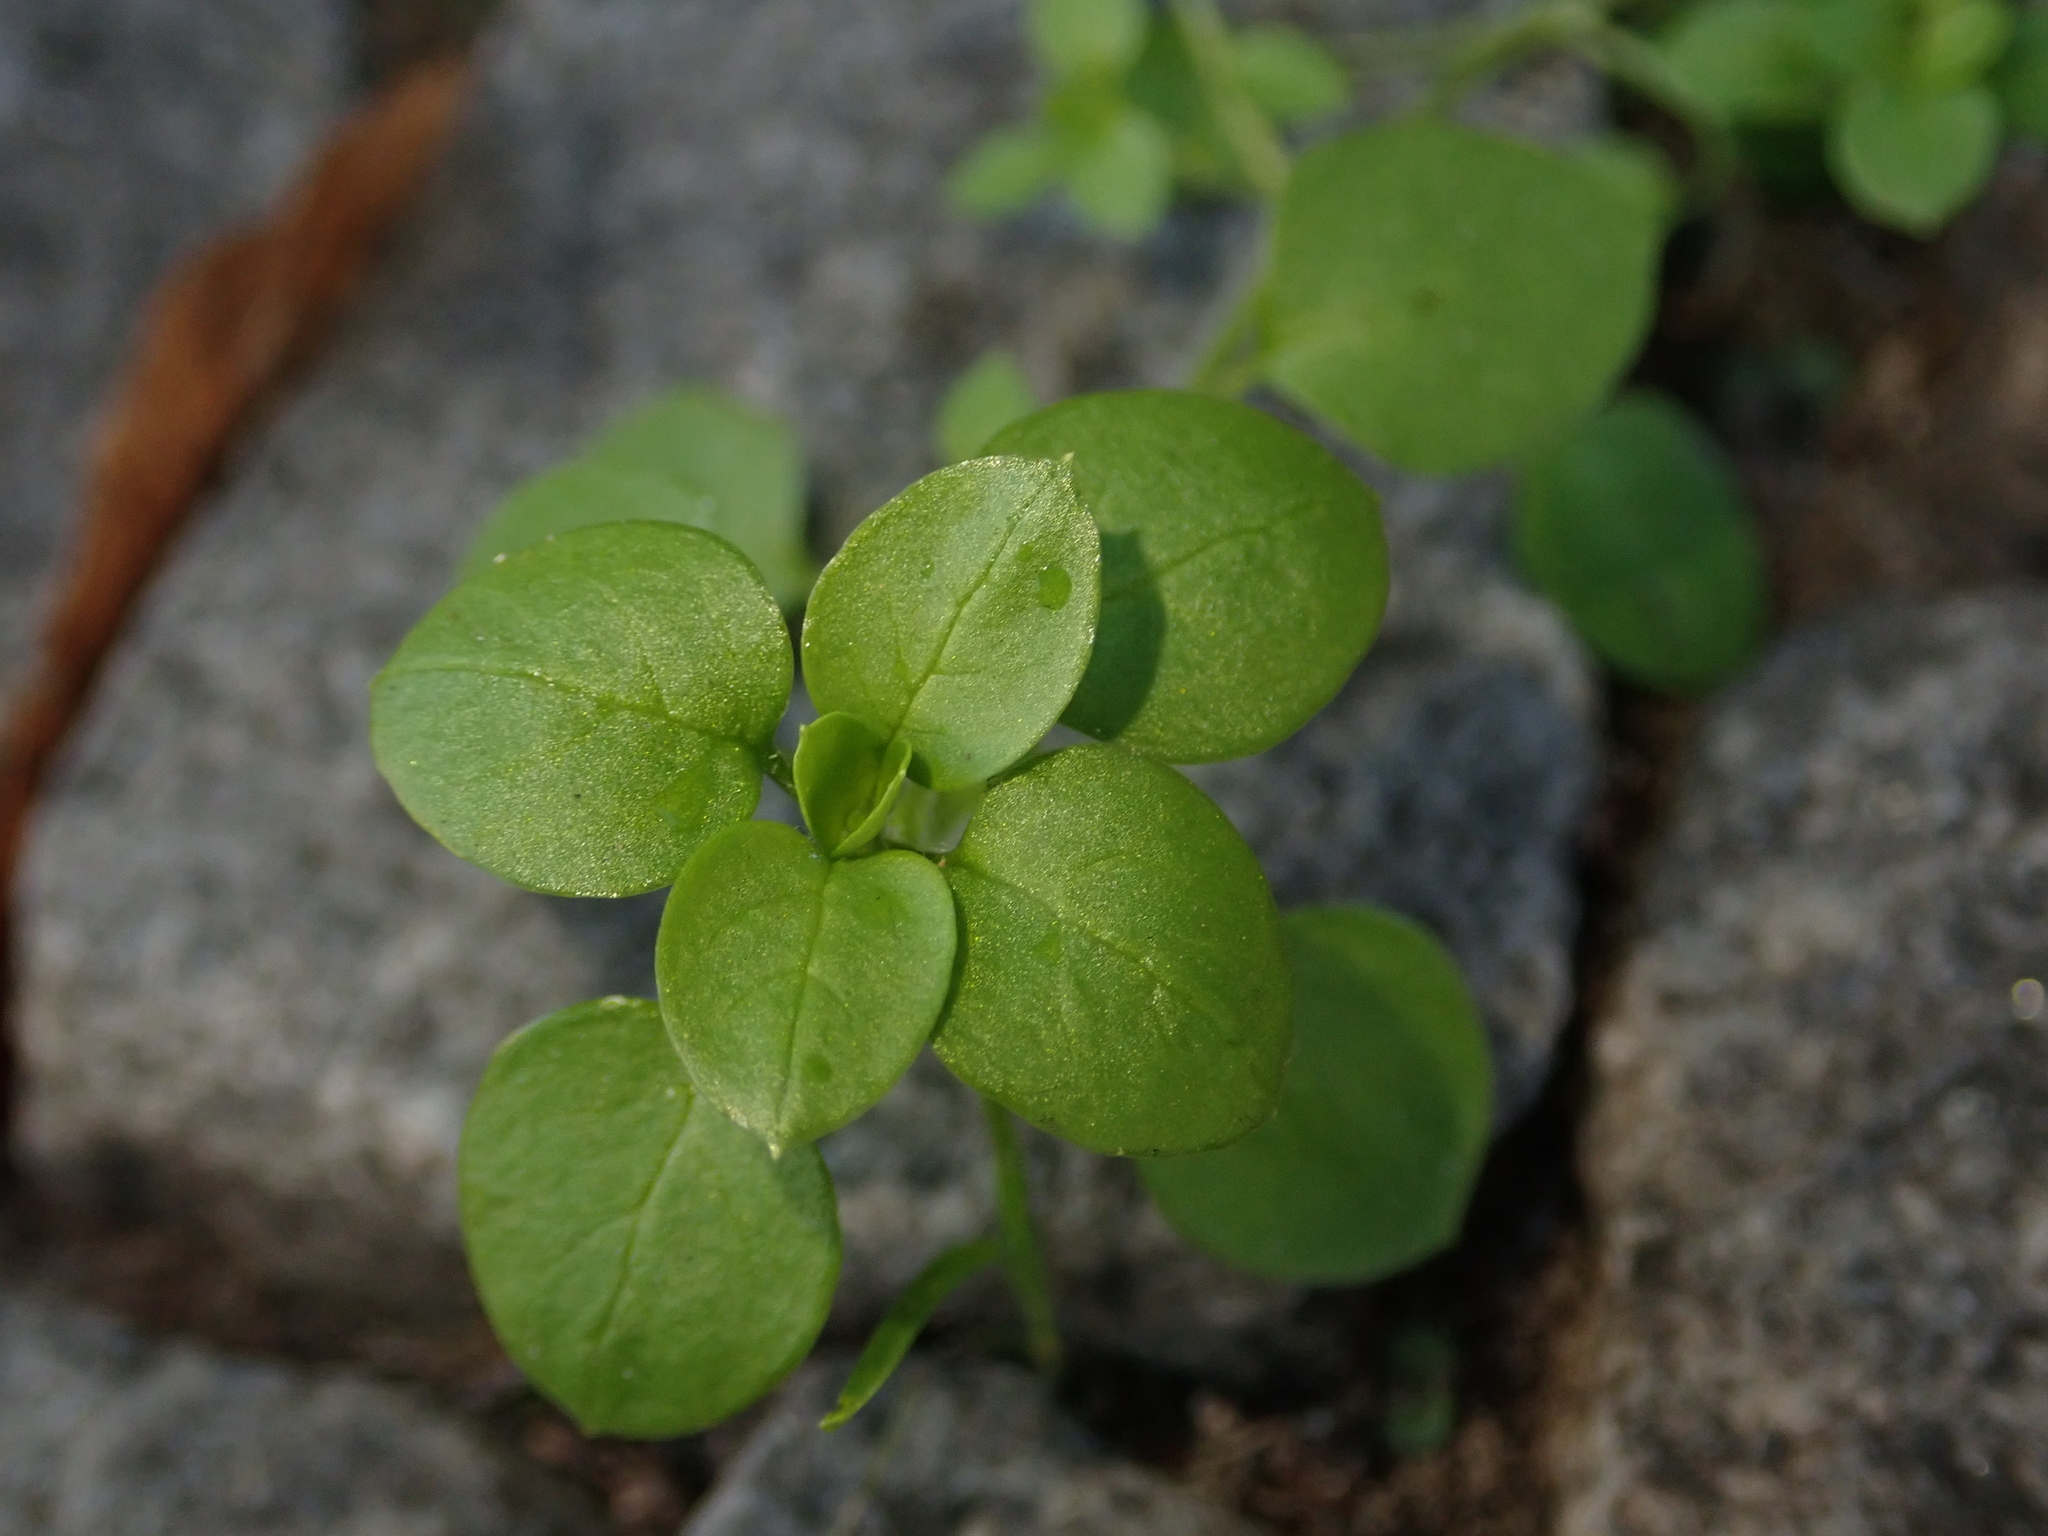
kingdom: Plantae
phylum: Tracheophyta
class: Magnoliopsida
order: Caryophyllales
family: Caryophyllaceae
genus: Stellaria
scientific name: Stellaria media
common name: Common chickweed
